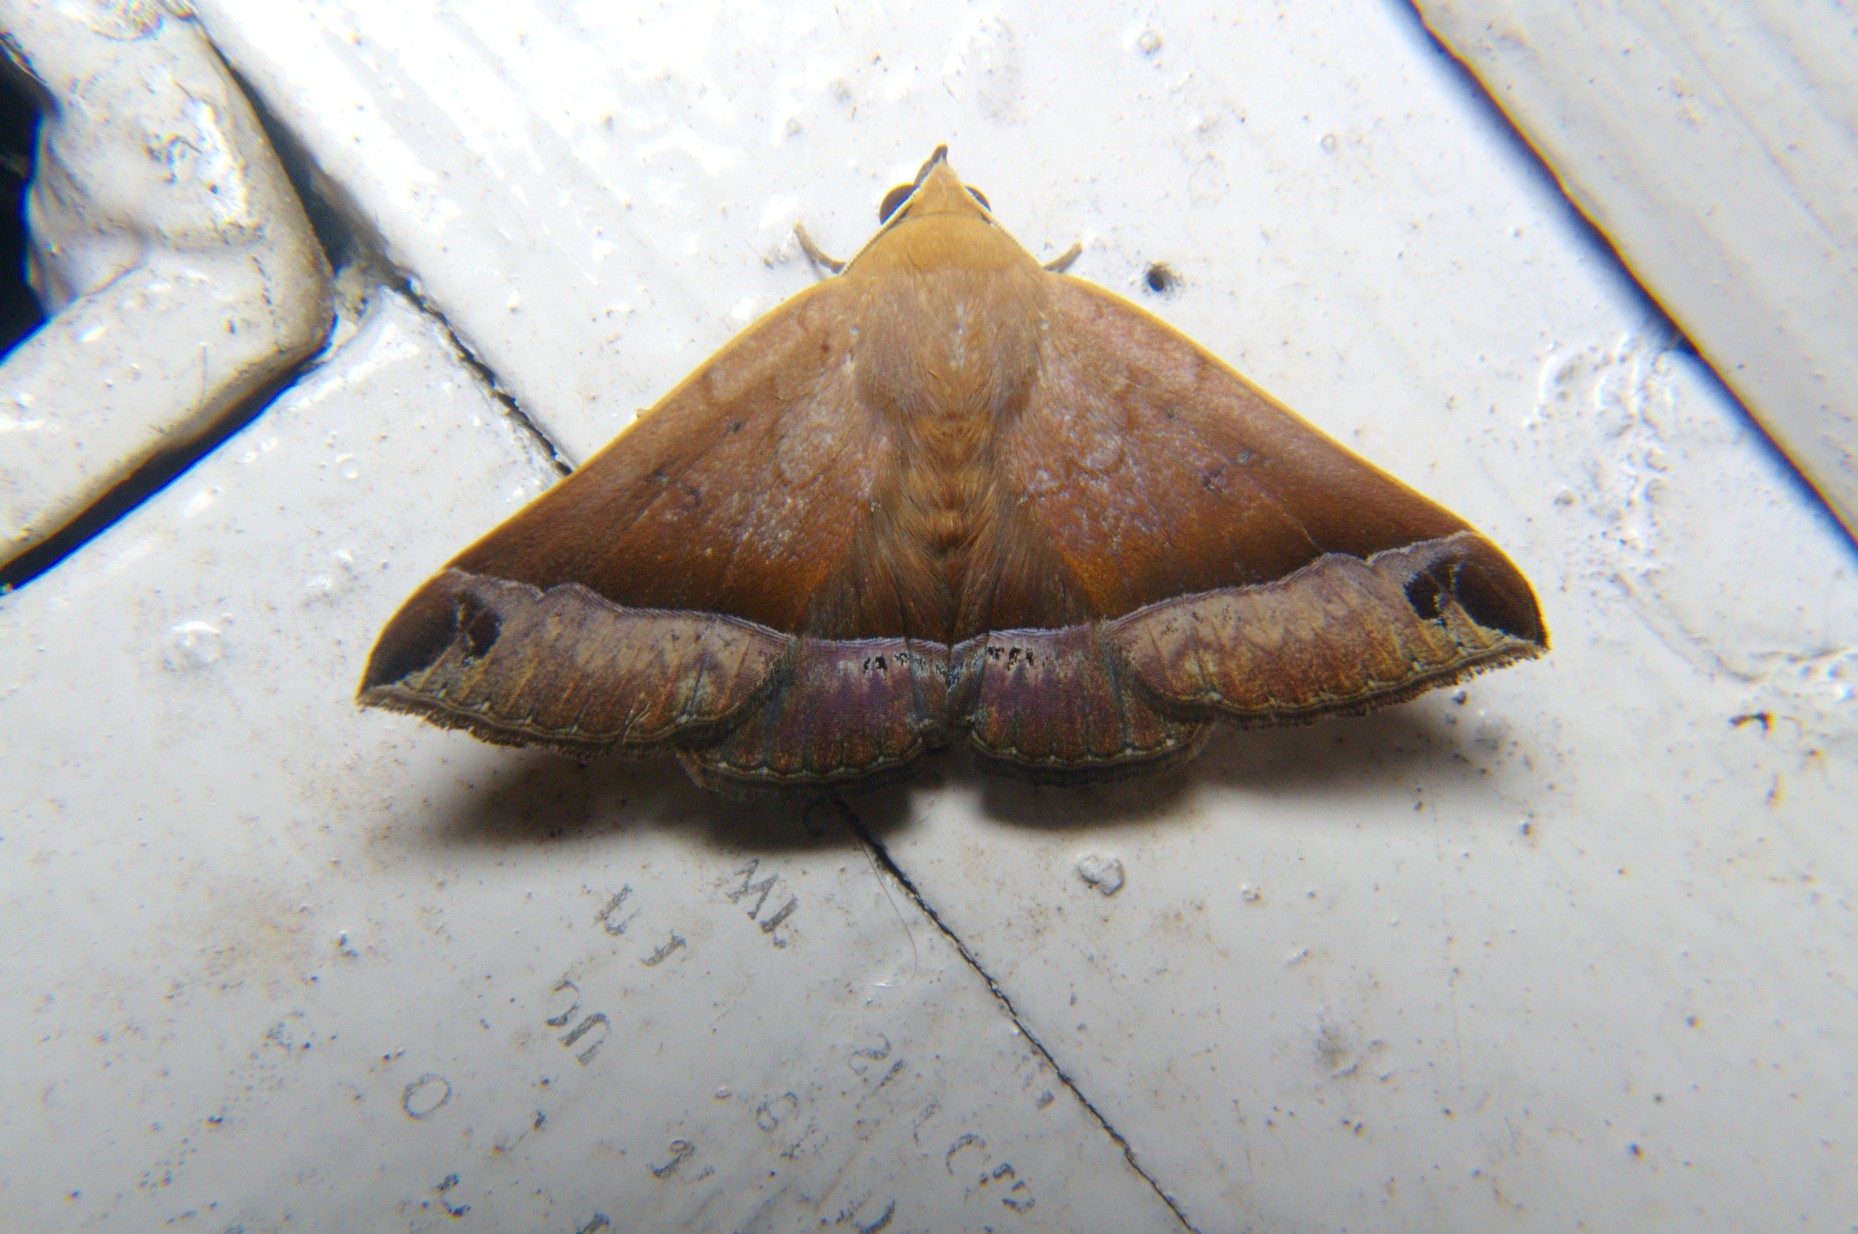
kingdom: Animalia
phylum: Arthropoda
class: Insecta
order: Lepidoptera
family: Erebidae
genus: Delgamma
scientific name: Delgamma pangonia
